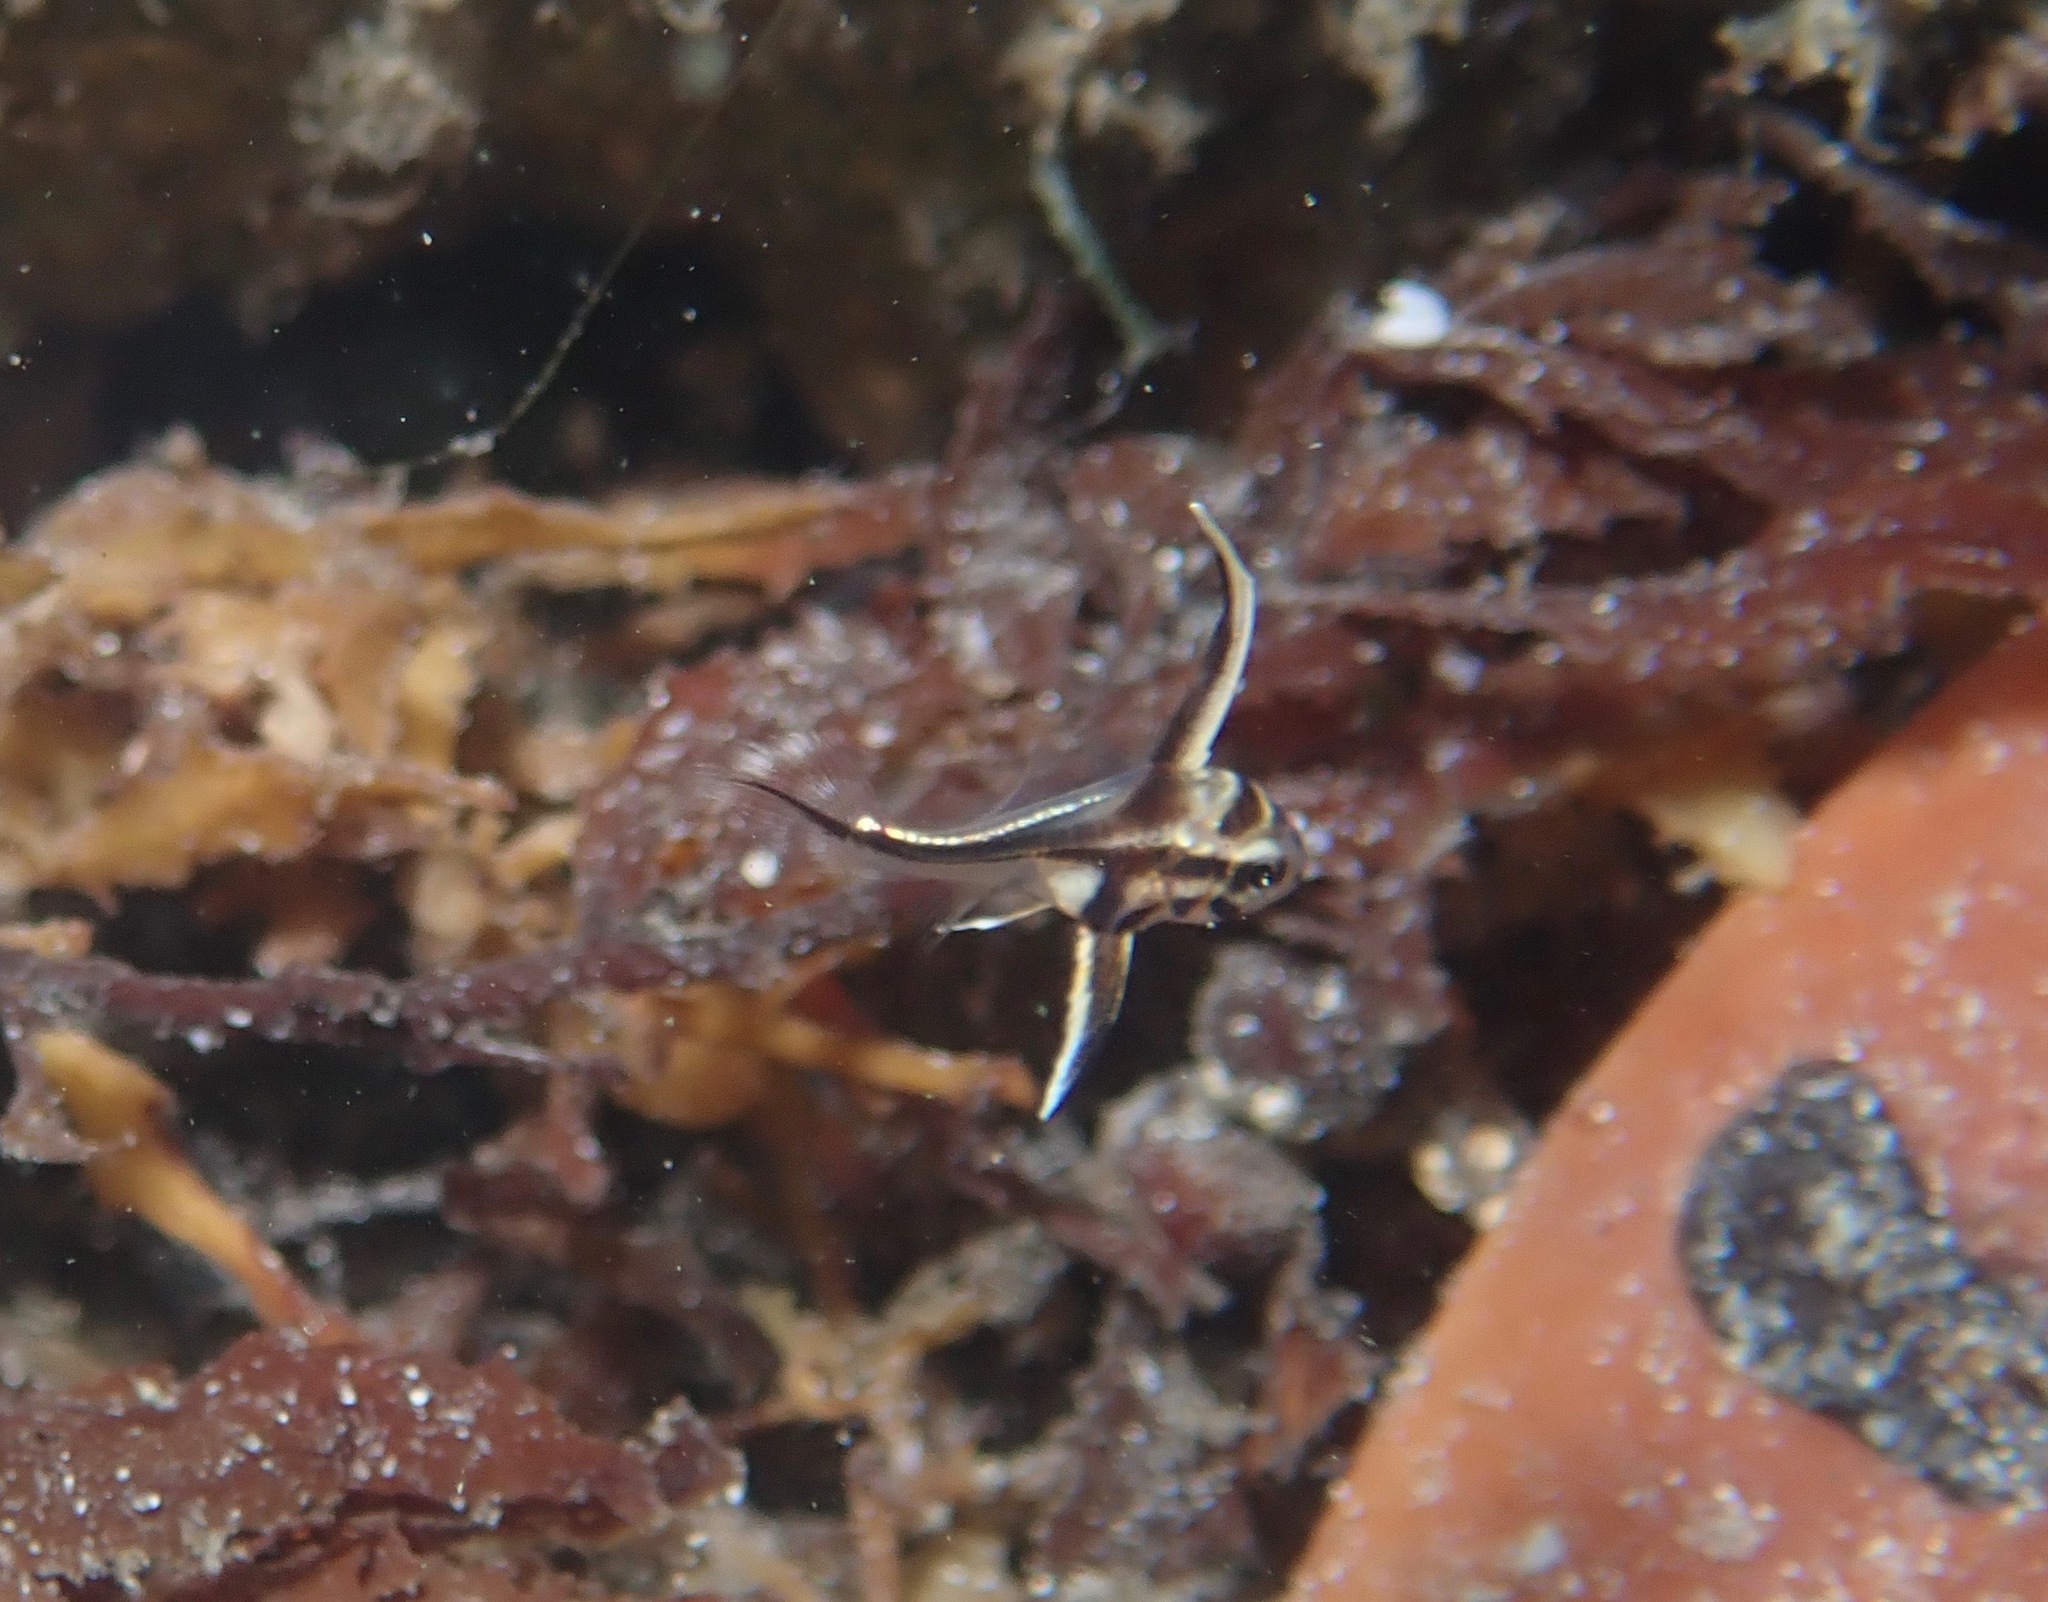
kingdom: Animalia
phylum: Chordata
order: Perciformes
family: Sciaenidae
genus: Pareques
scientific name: Pareques acuminatus
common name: High-hat
